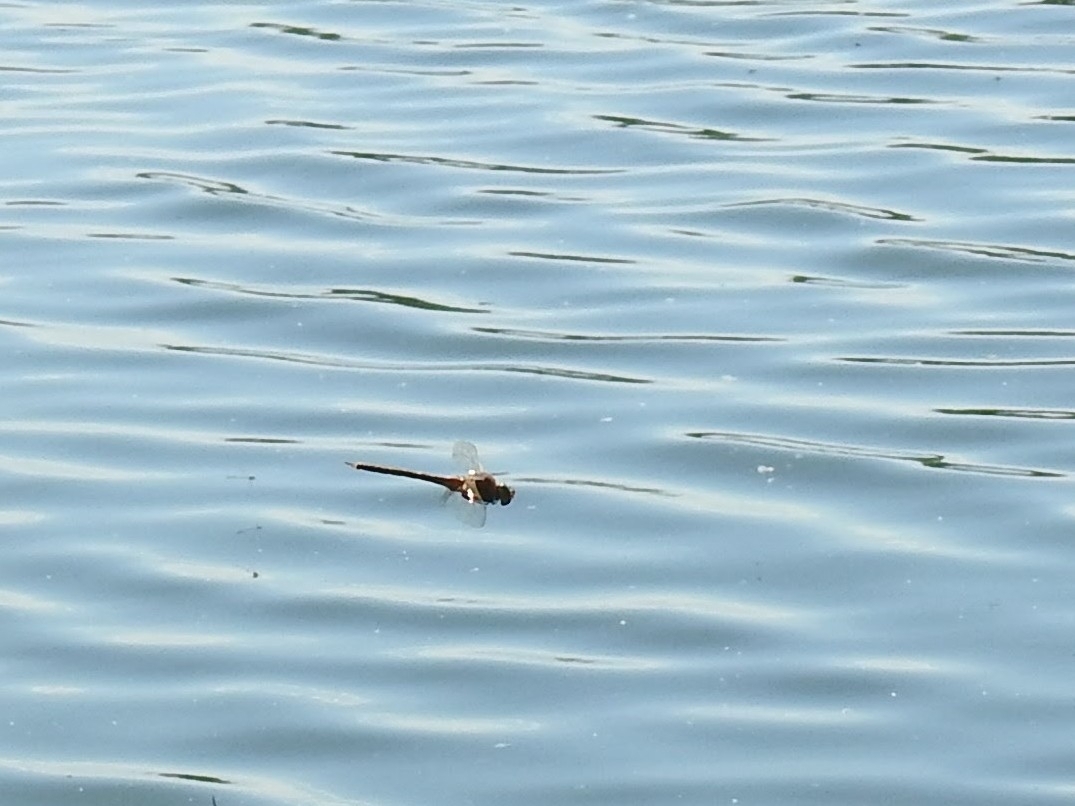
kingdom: Animalia
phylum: Arthropoda
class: Insecta
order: Odonata
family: Aeshnidae
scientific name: Aeshnidae
